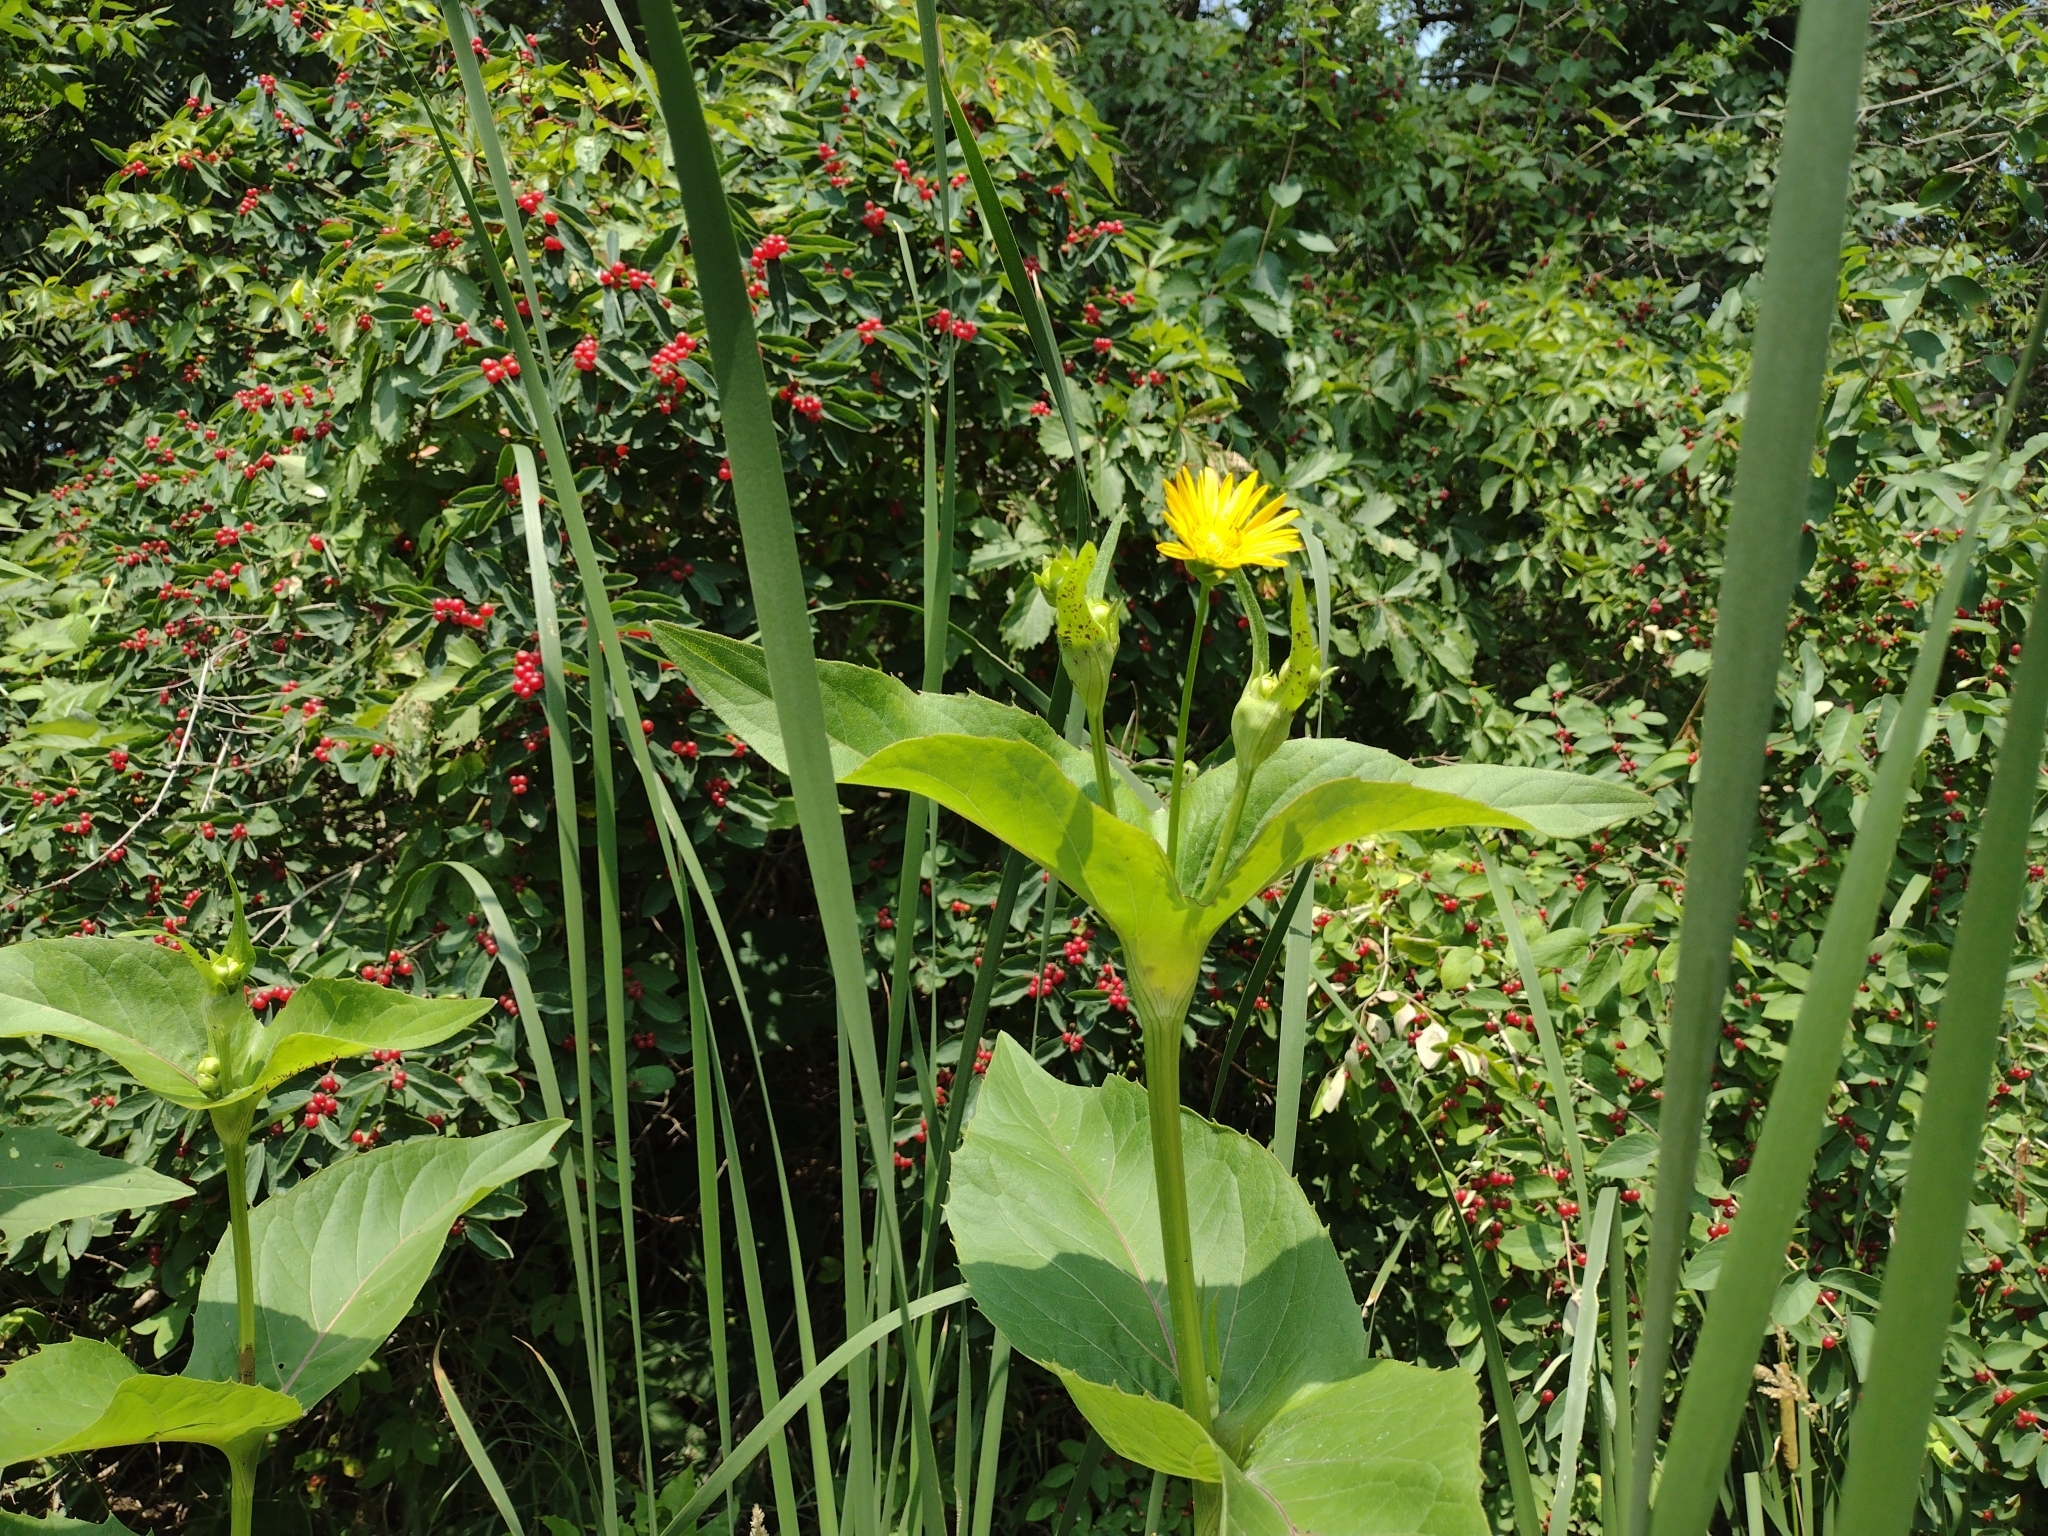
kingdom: Plantae
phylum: Tracheophyta
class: Magnoliopsida
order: Asterales
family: Asteraceae
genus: Silphium
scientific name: Silphium perfoliatum
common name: Cup-plant
